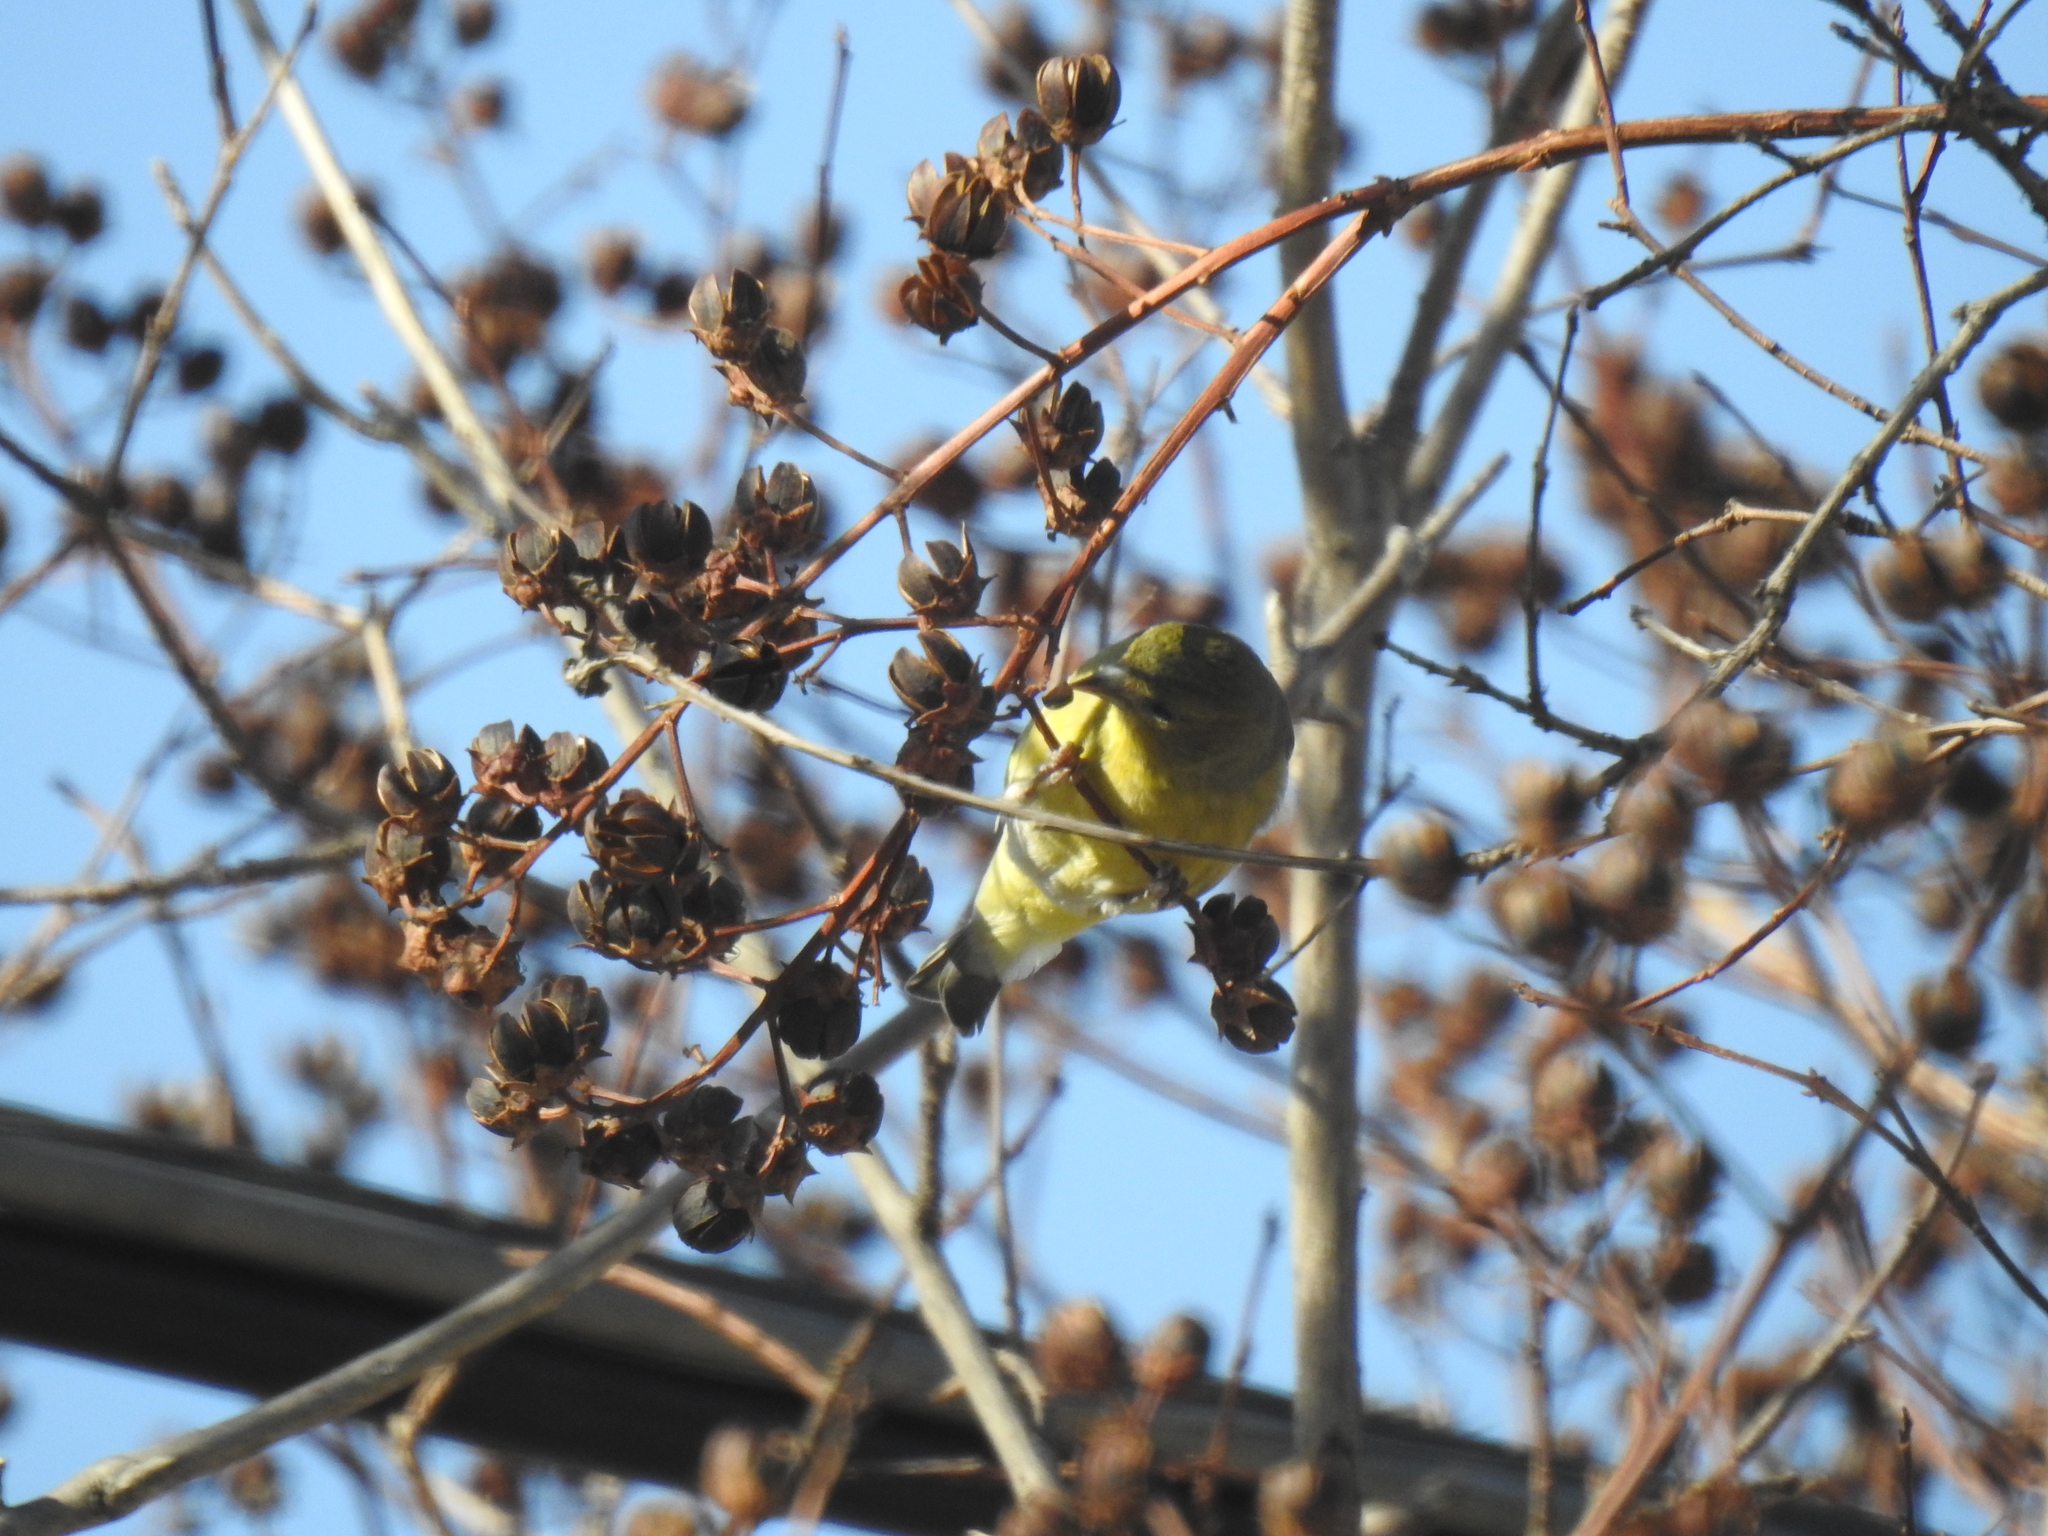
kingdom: Animalia
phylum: Chordata
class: Aves
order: Passeriformes
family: Fringillidae
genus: Spinus
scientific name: Spinus psaltria
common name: Lesser goldfinch
